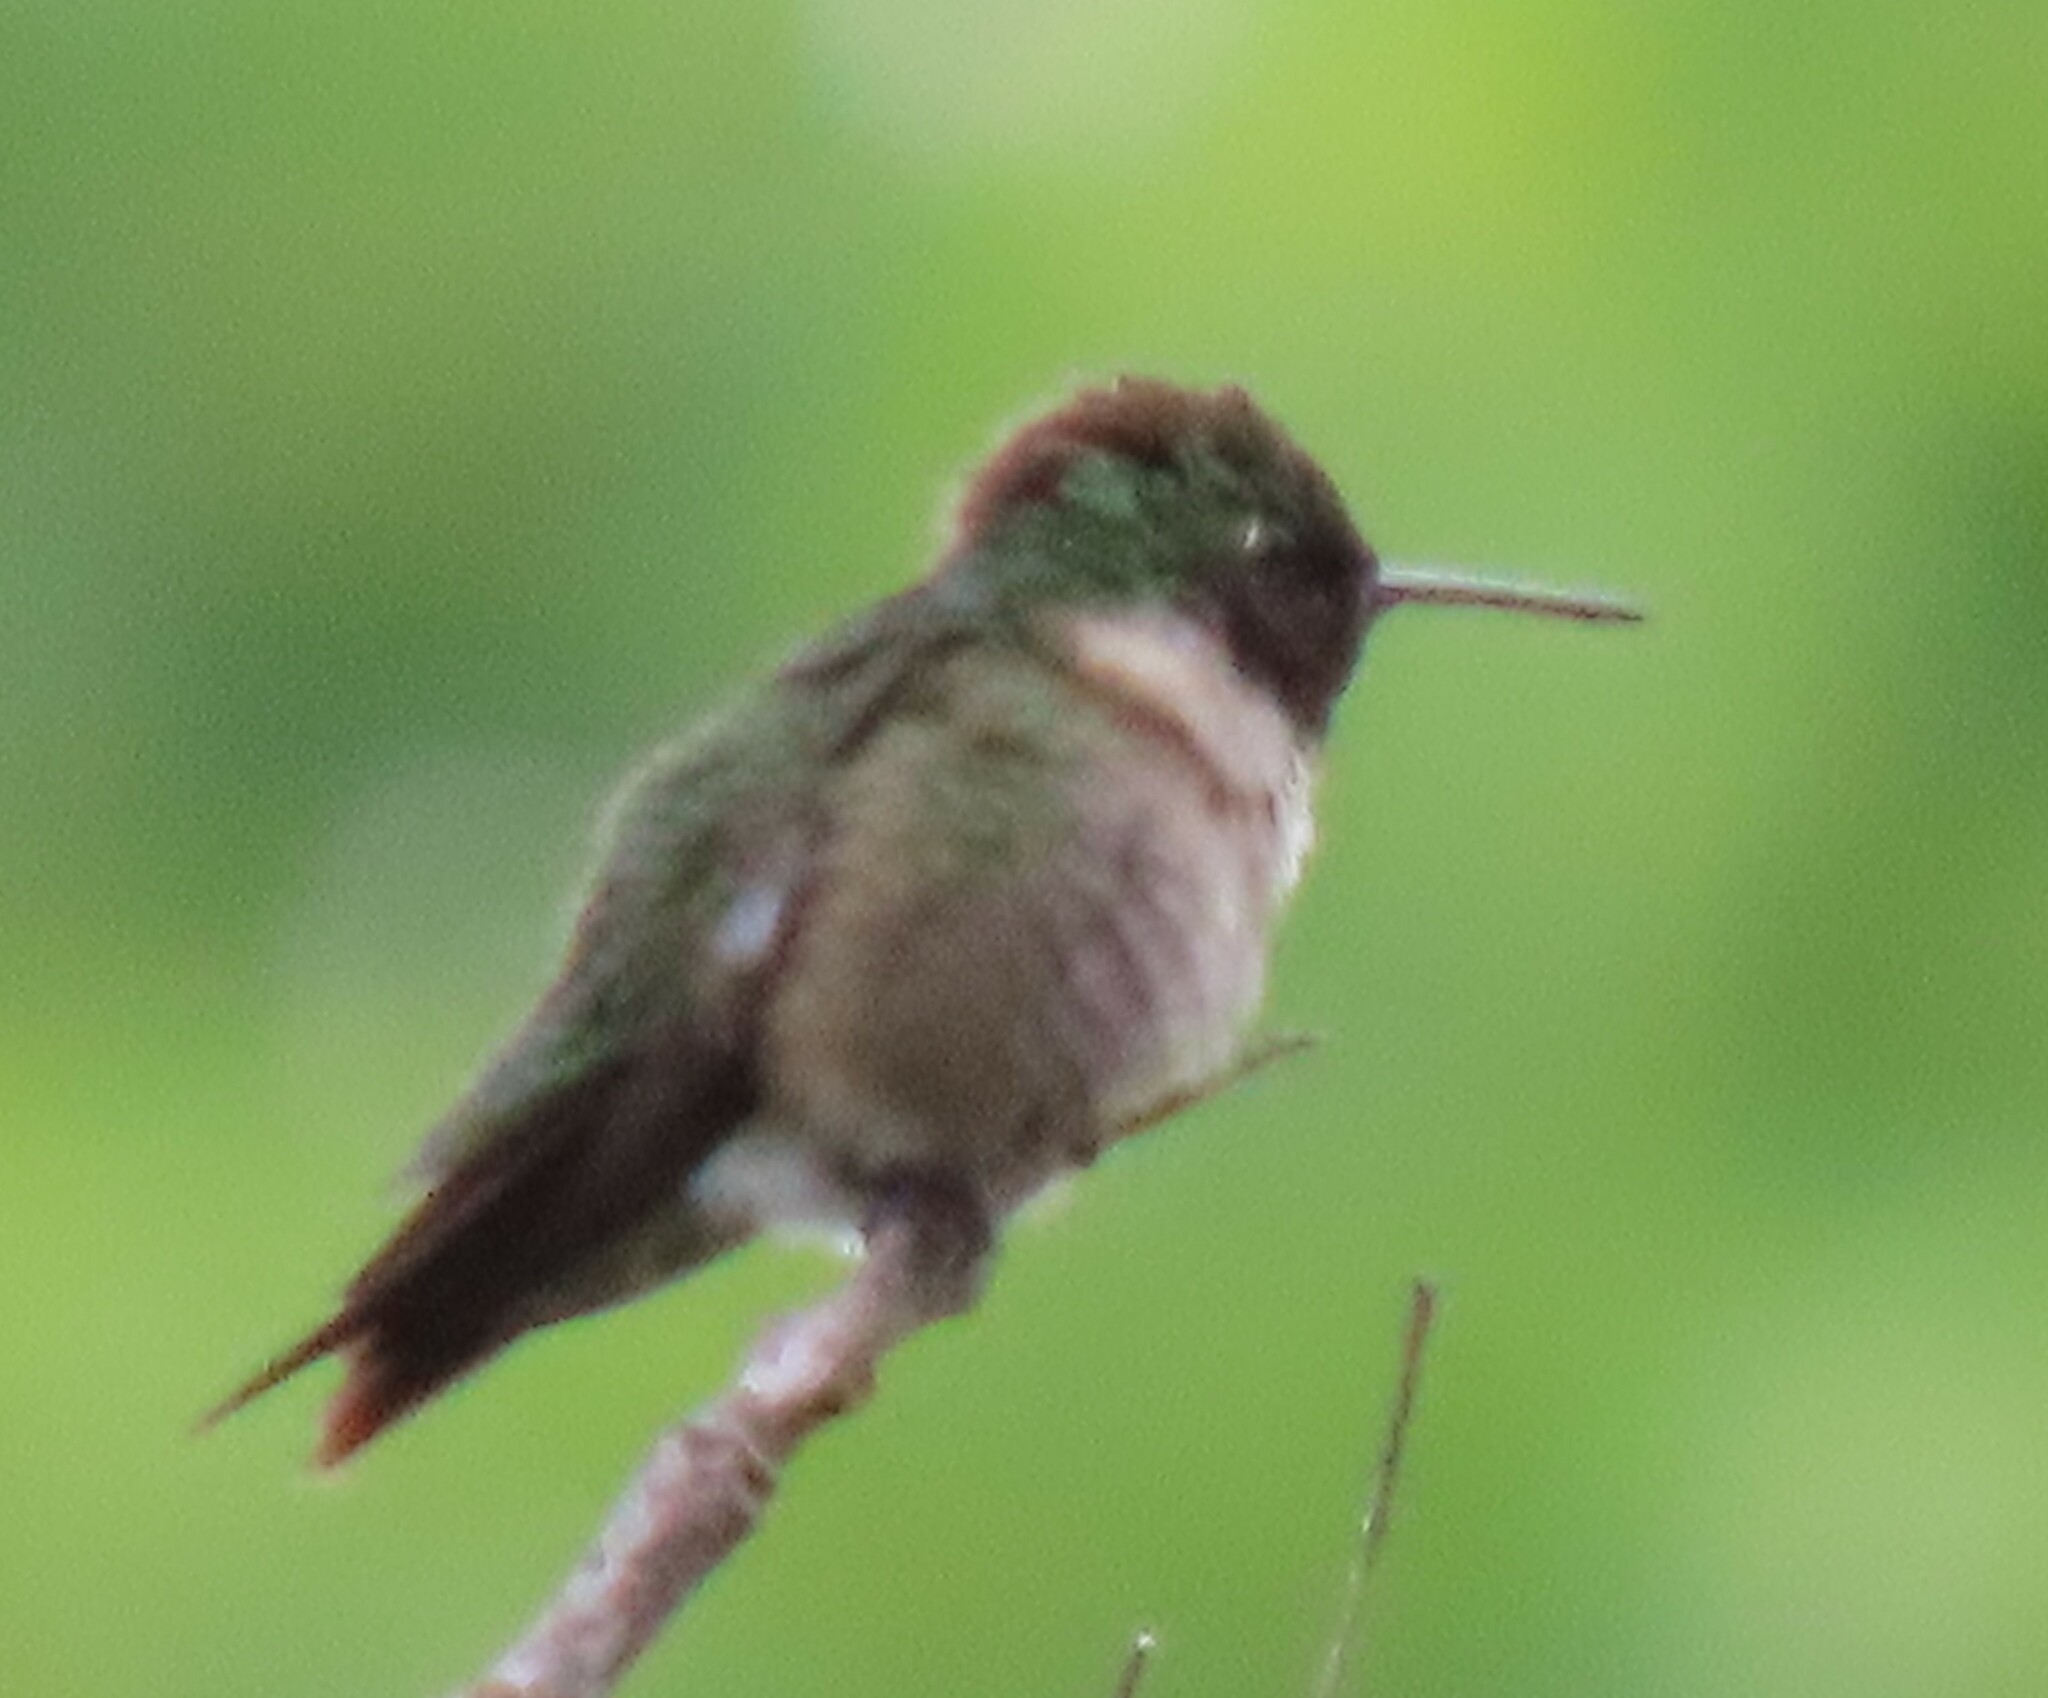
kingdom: Animalia
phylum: Chordata
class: Aves
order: Apodiformes
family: Trochilidae
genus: Archilochus
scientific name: Archilochus colubris
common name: Ruby-throated hummingbird
